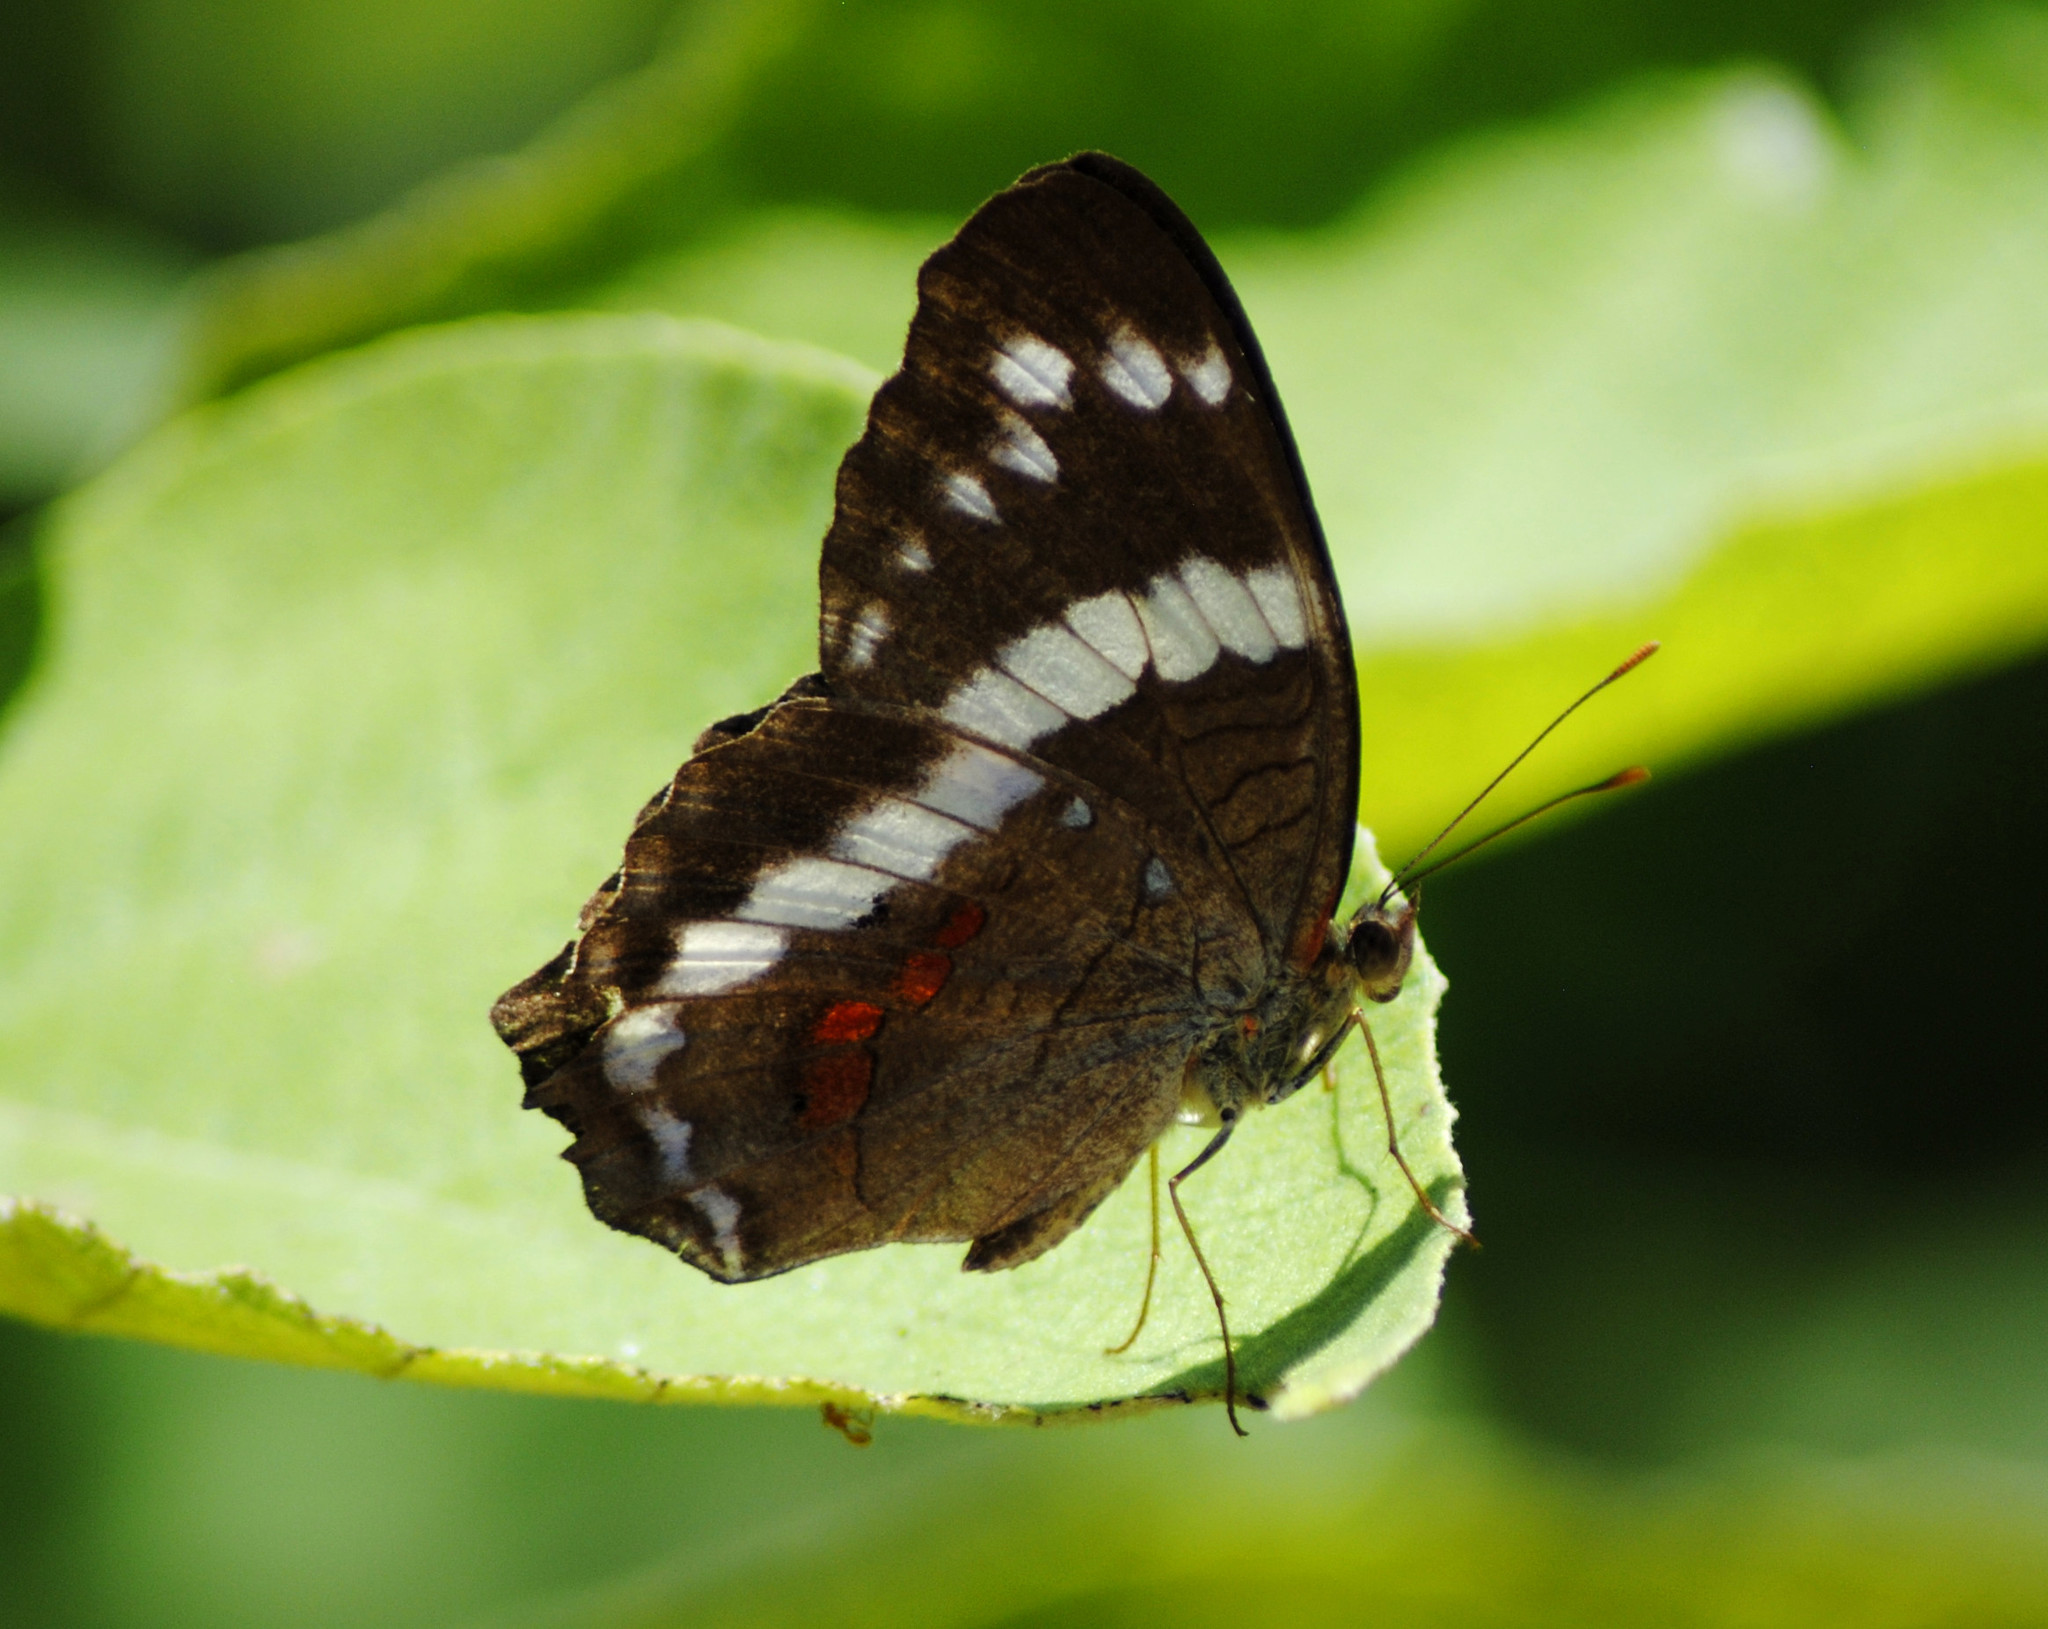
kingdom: Animalia
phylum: Arthropoda
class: Insecta
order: Lepidoptera
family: Nymphalidae
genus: Anartia
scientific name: Anartia fatima
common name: Banded peacock
